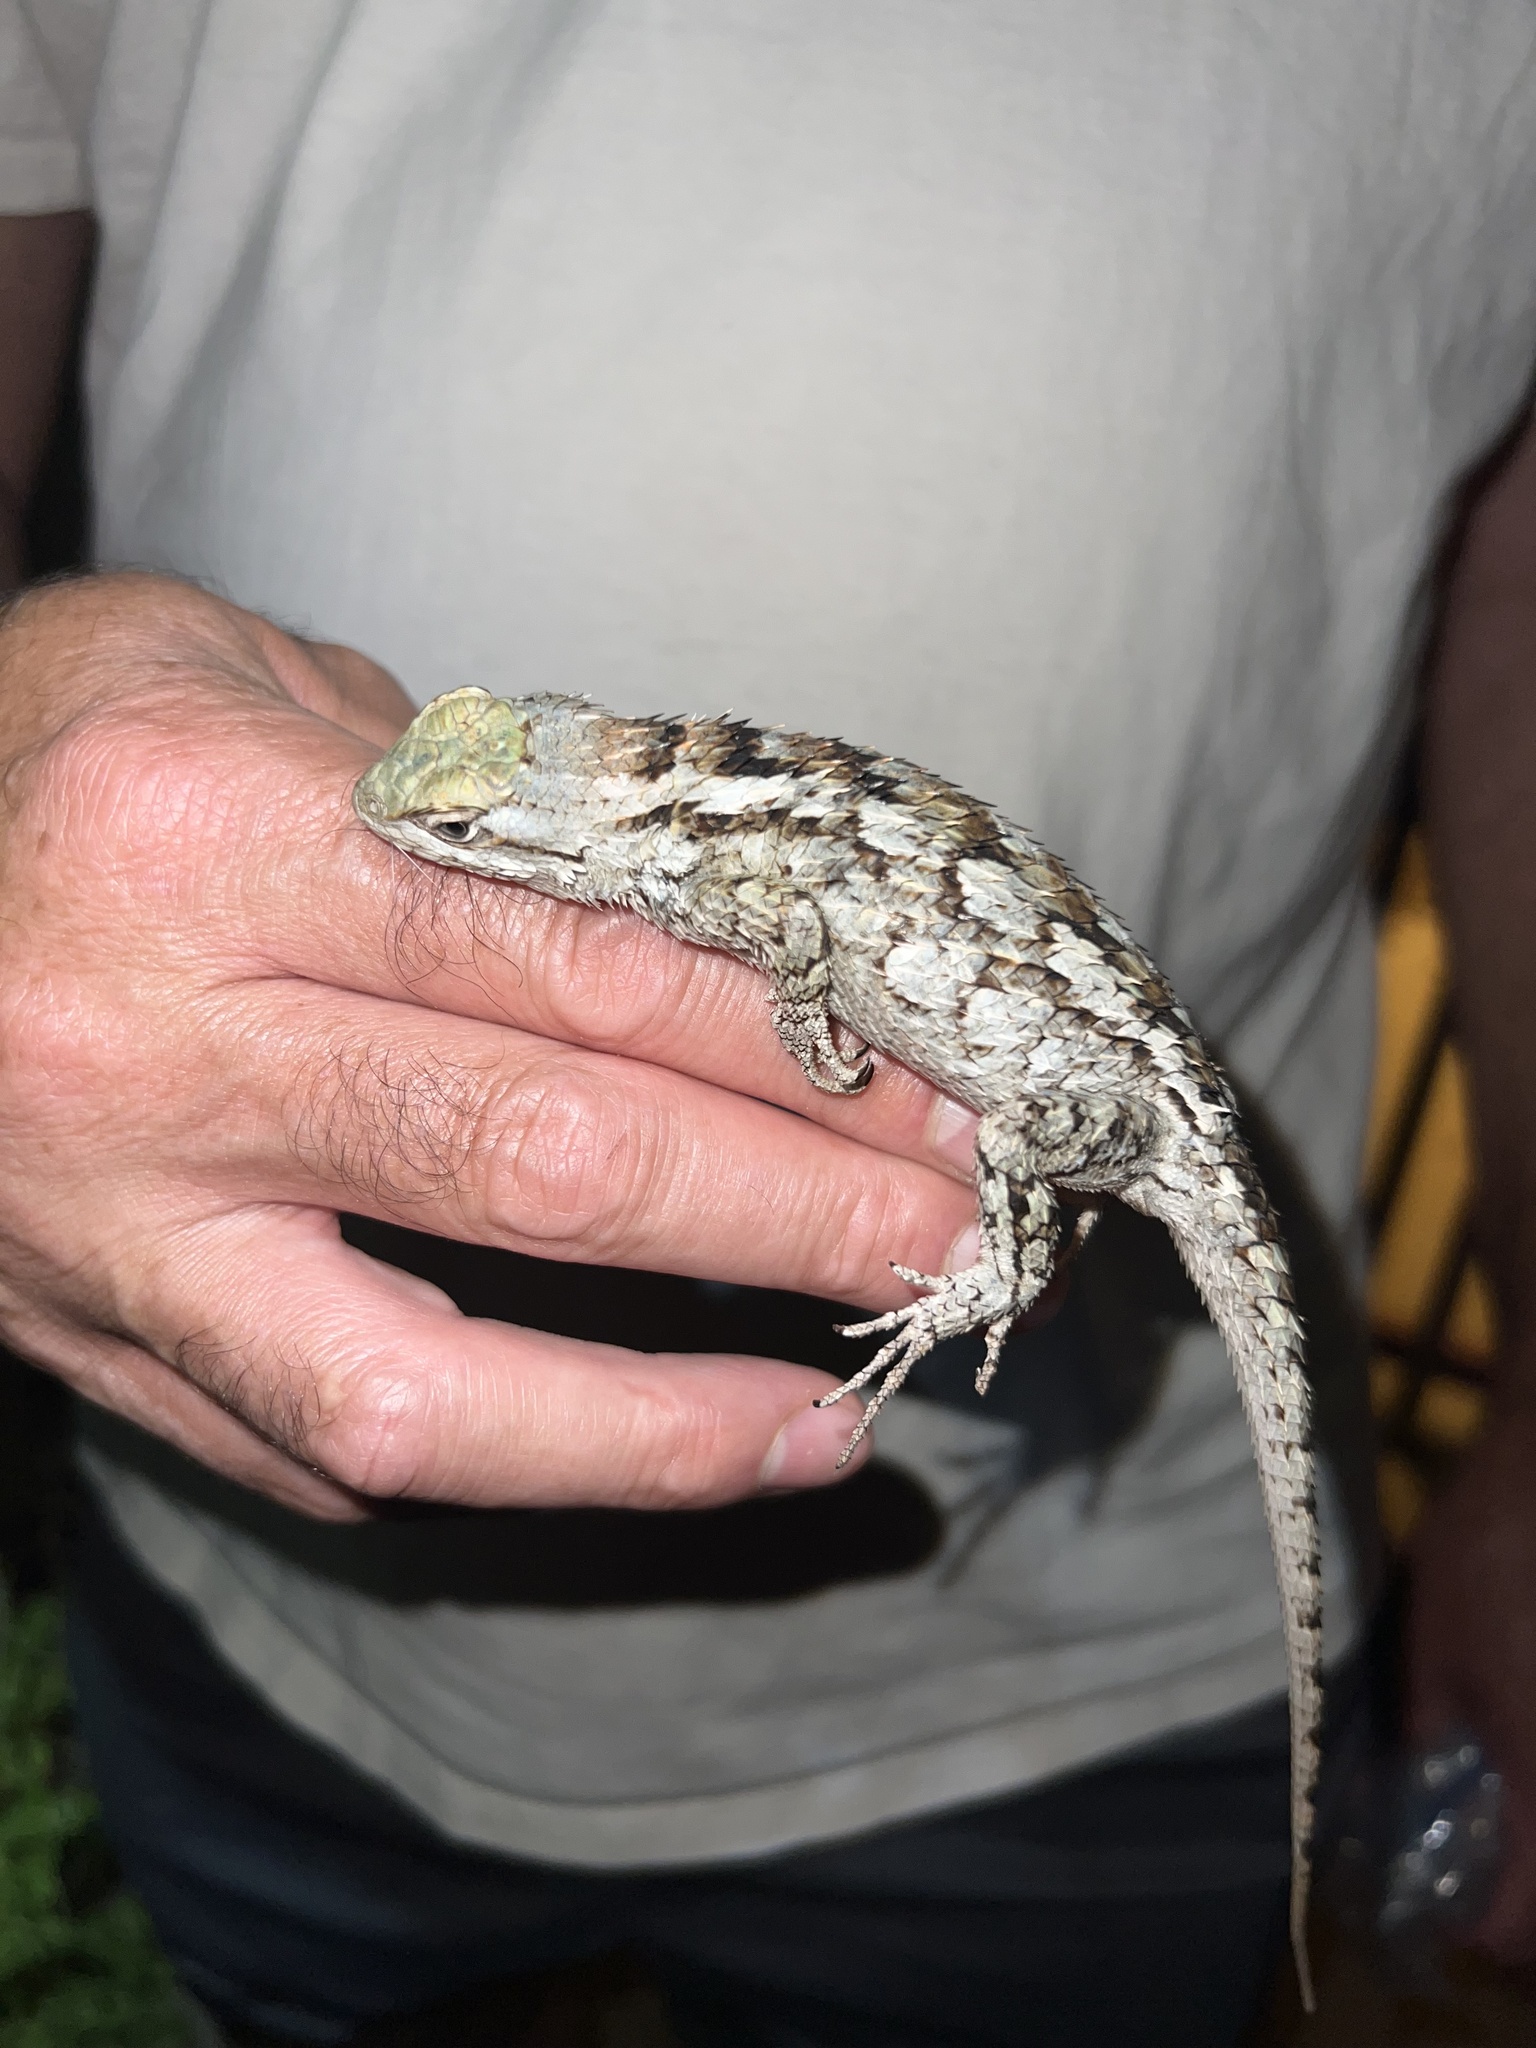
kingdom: Animalia
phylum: Chordata
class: Squamata
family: Phrynosomatidae
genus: Sceloporus
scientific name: Sceloporus olivaceus
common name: Texas spiny lizard
